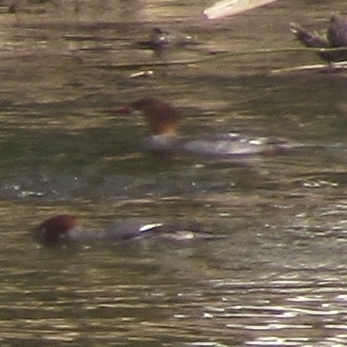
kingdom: Animalia
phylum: Chordata
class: Aves
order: Anseriformes
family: Anatidae
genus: Mergus
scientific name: Mergus merganser
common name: Common merganser
